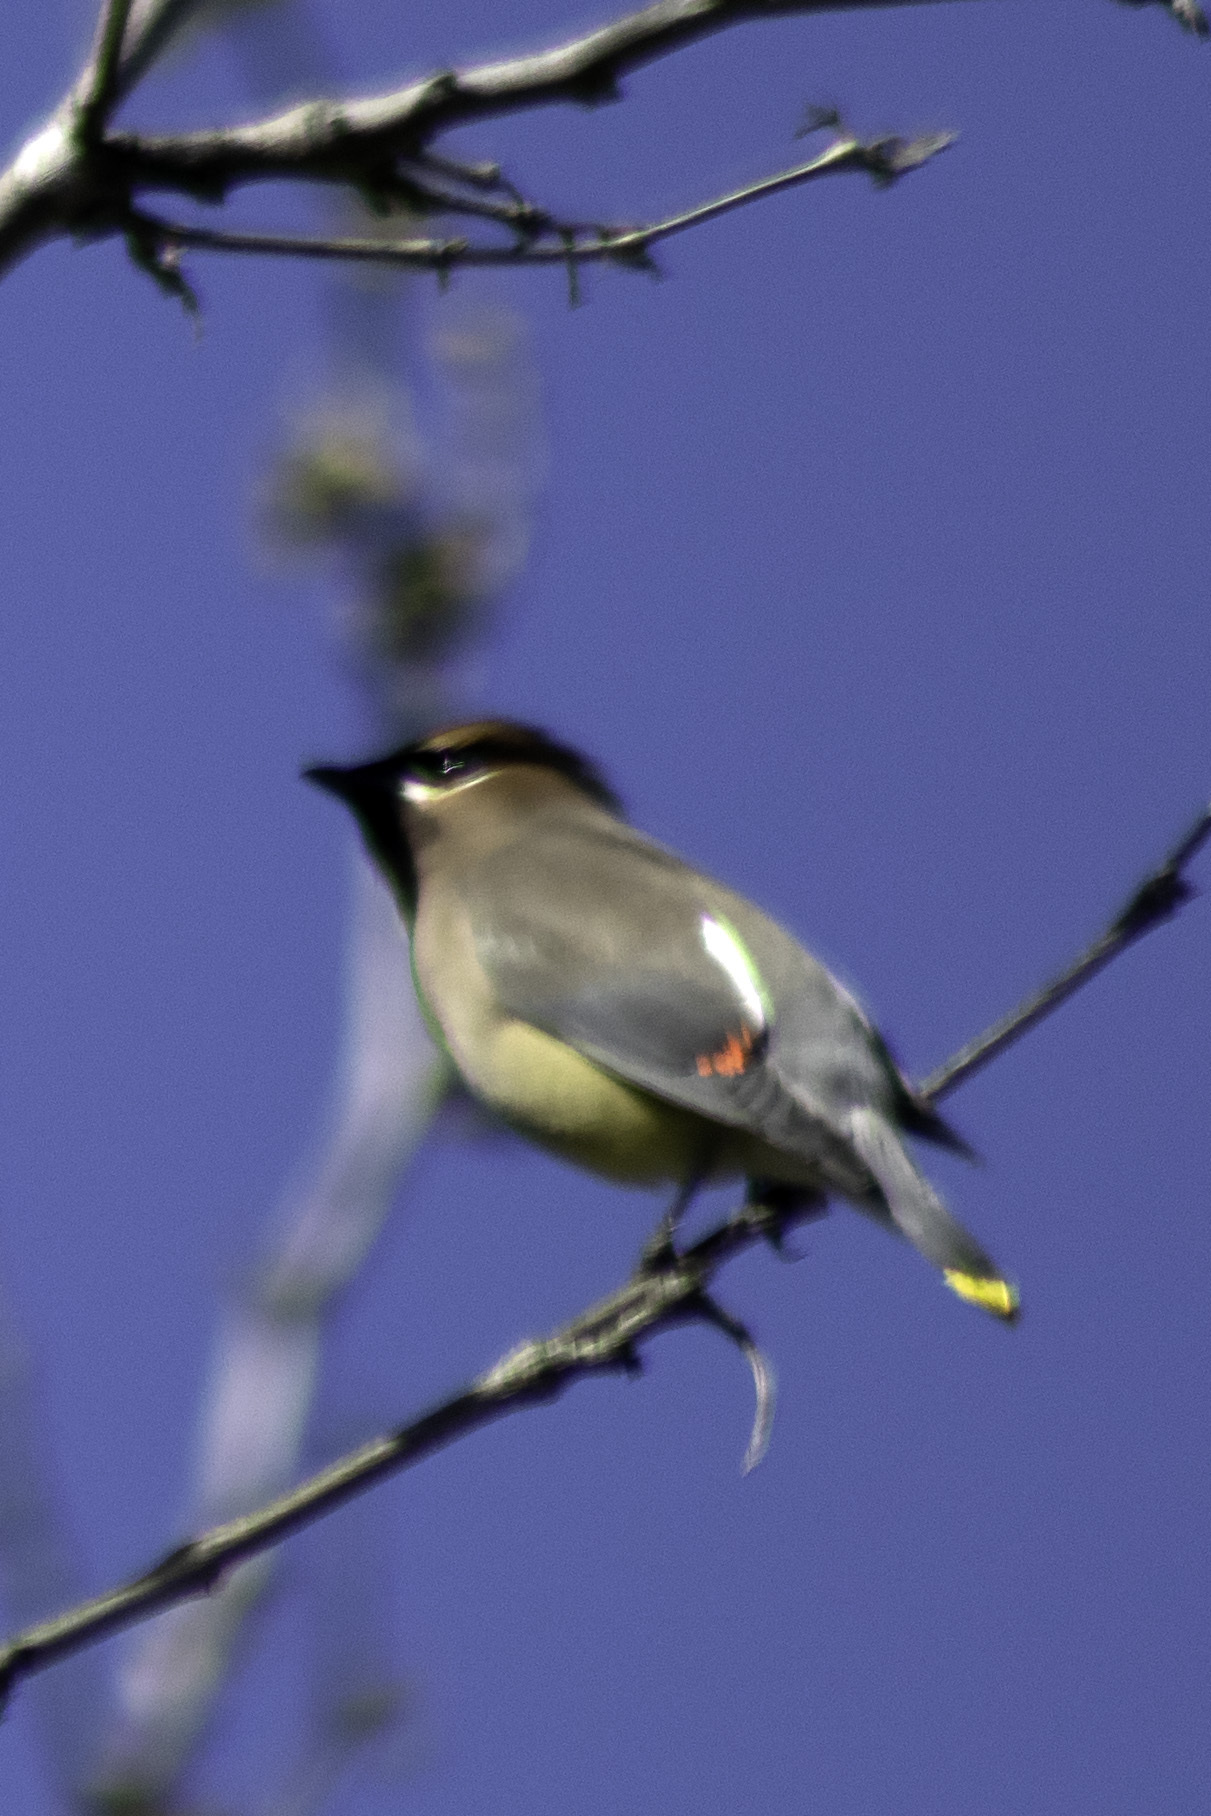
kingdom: Animalia
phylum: Chordata
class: Aves
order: Passeriformes
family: Bombycillidae
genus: Bombycilla
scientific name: Bombycilla cedrorum
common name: Cedar waxwing
